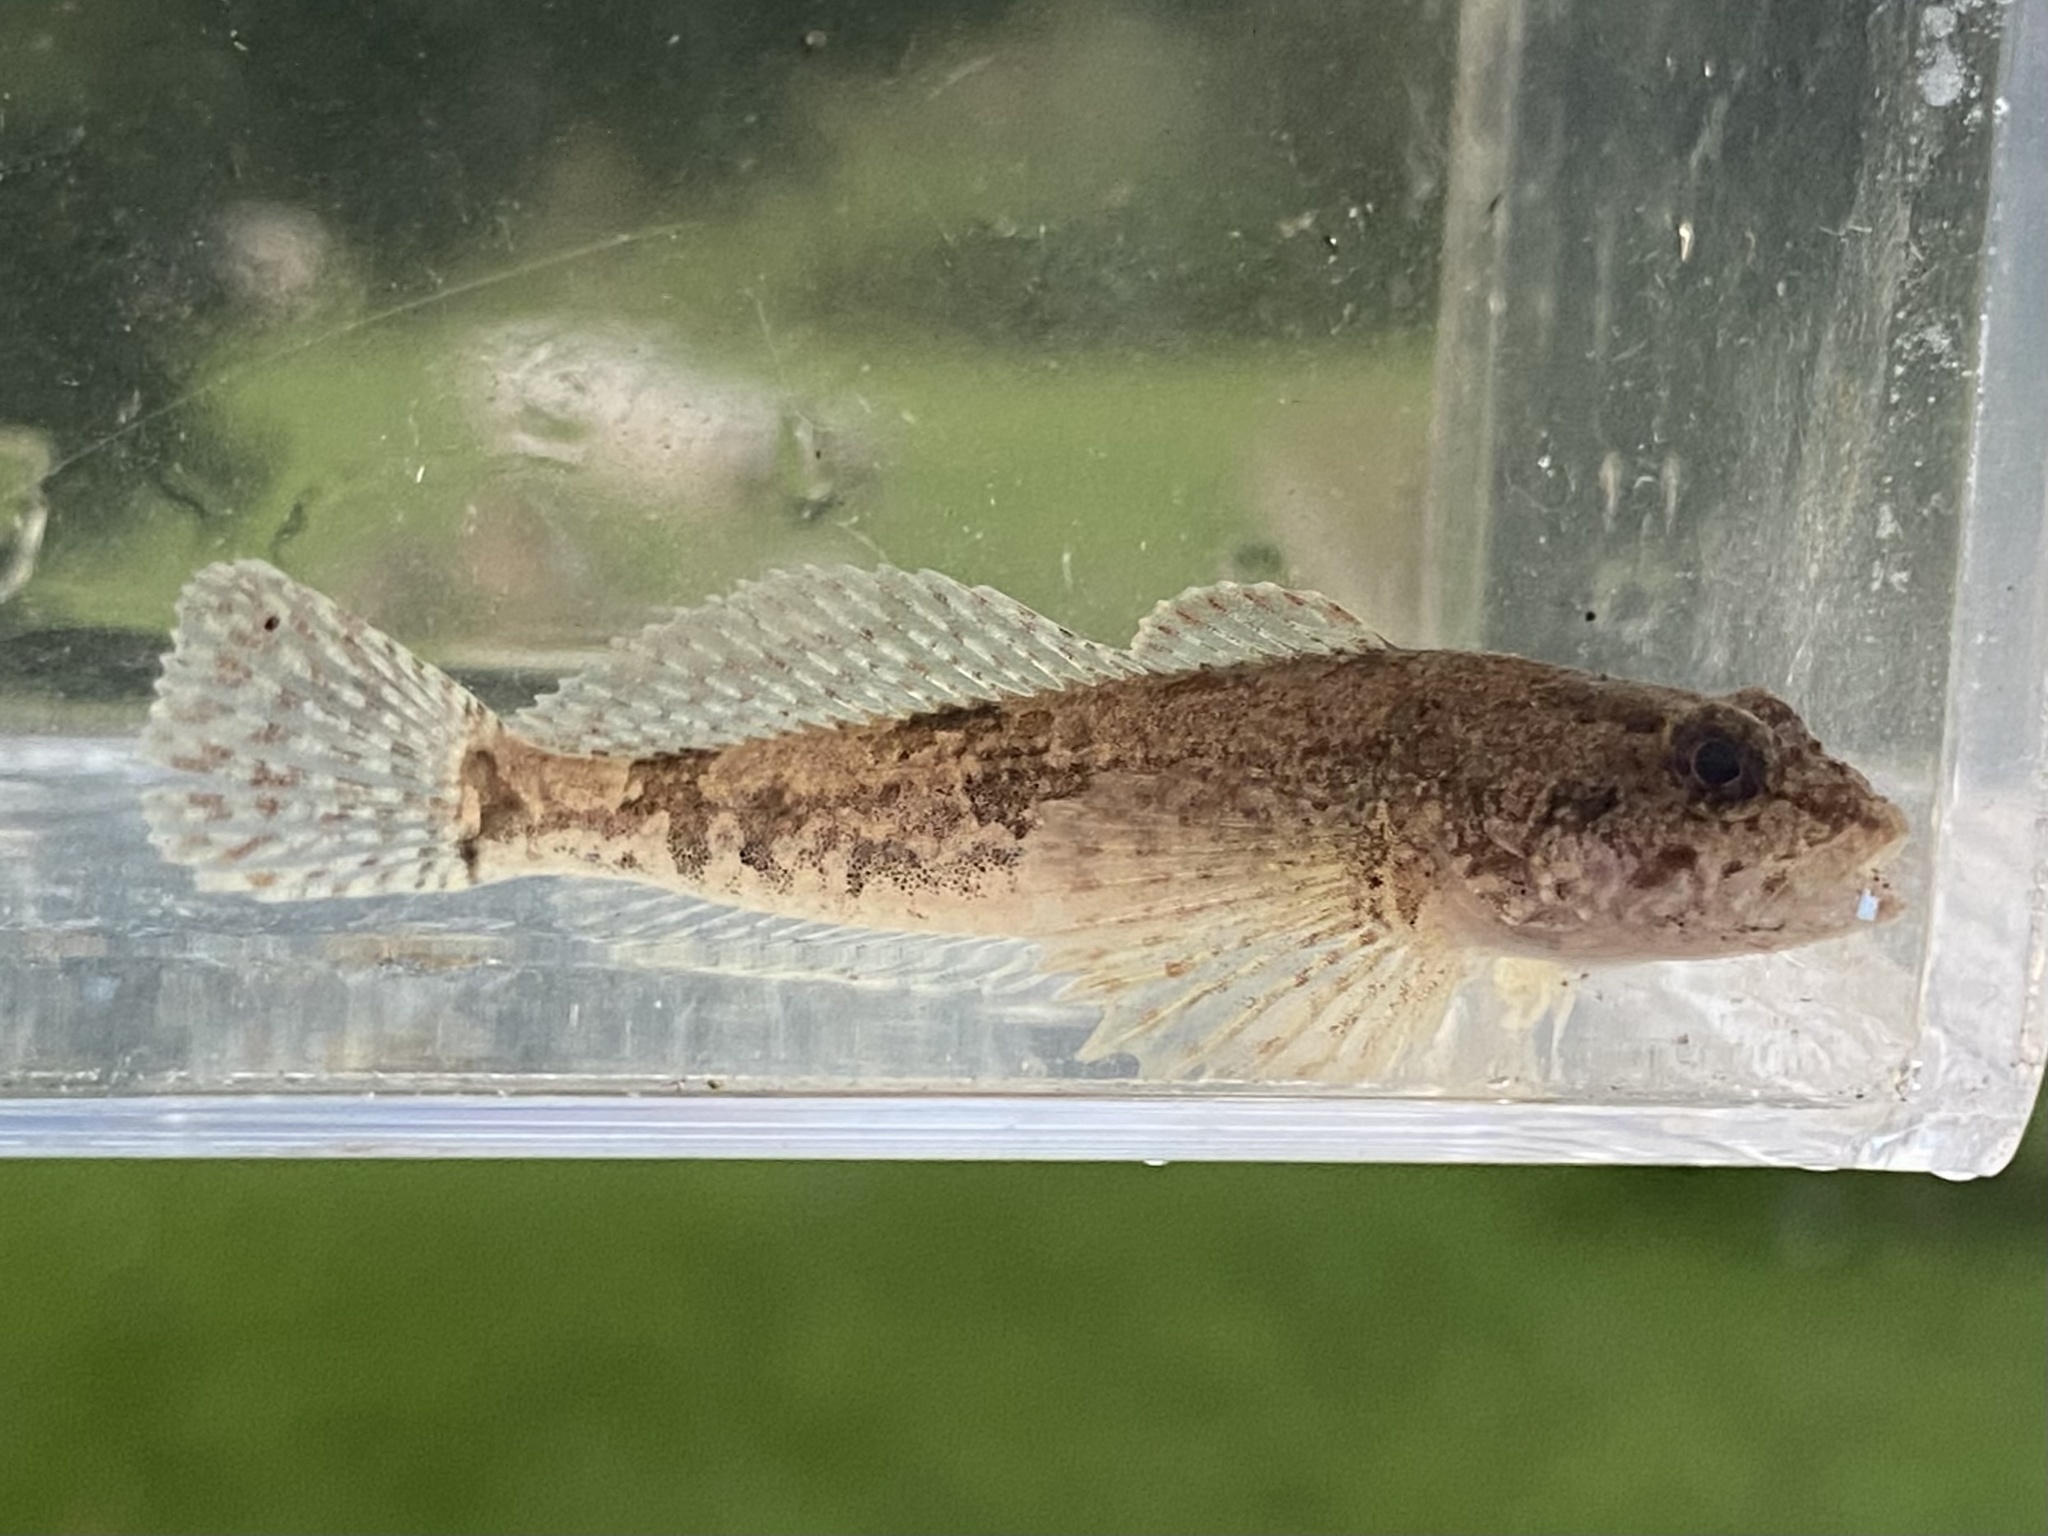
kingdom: Animalia
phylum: Chordata
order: Scorpaeniformes
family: Cottidae
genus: Cottus
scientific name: Cottus bairdii
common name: Mottled sculpin
